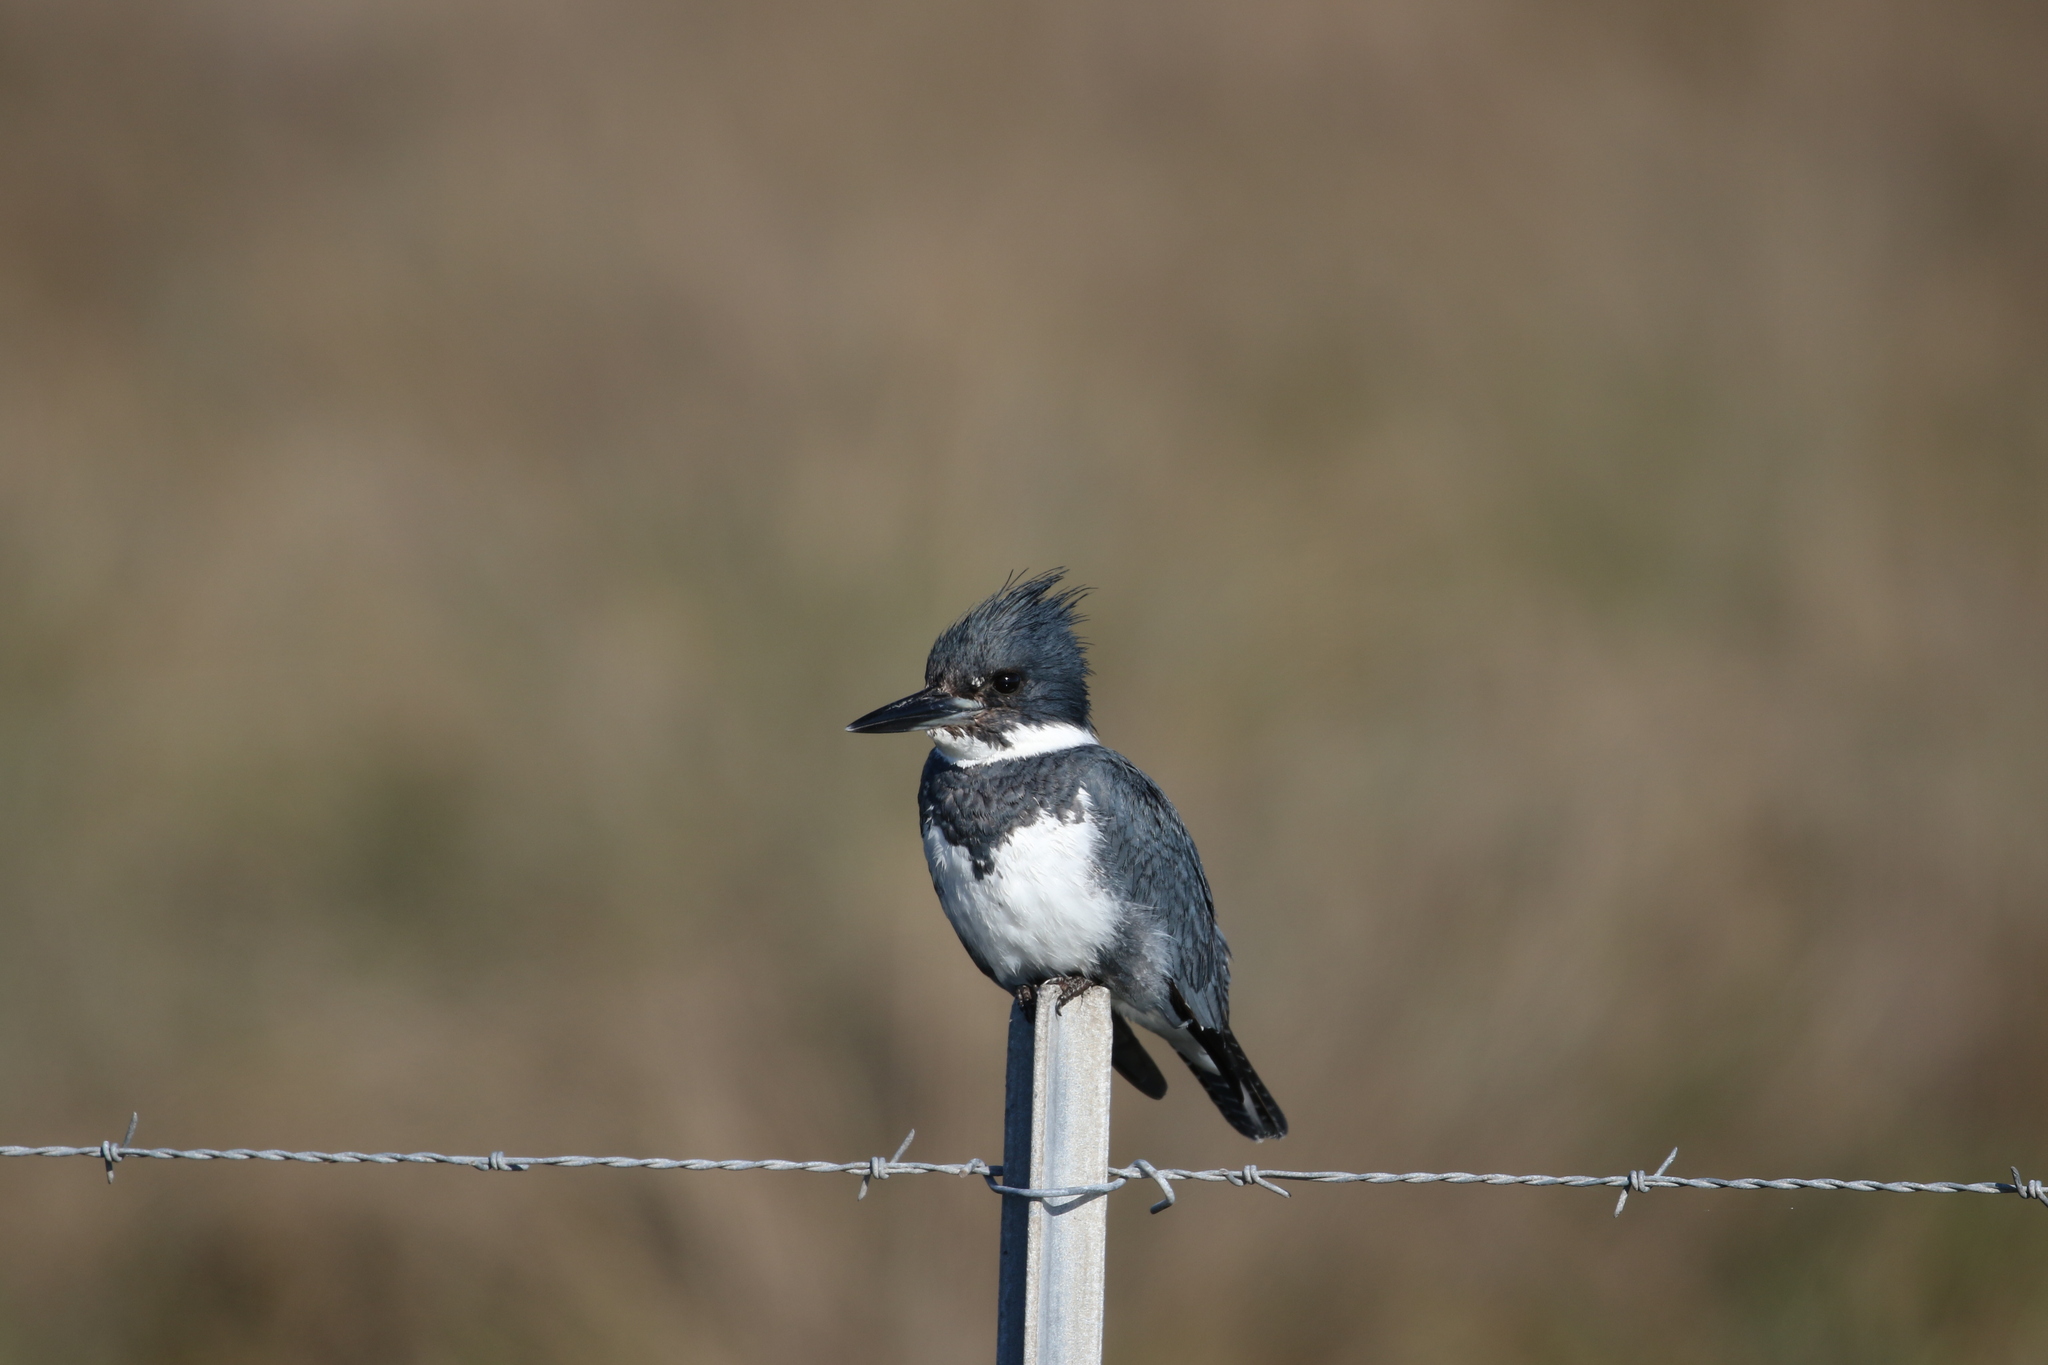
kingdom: Animalia
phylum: Chordata
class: Aves
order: Coraciiformes
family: Alcedinidae
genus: Megaceryle
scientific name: Megaceryle alcyon
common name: Belted kingfisher
